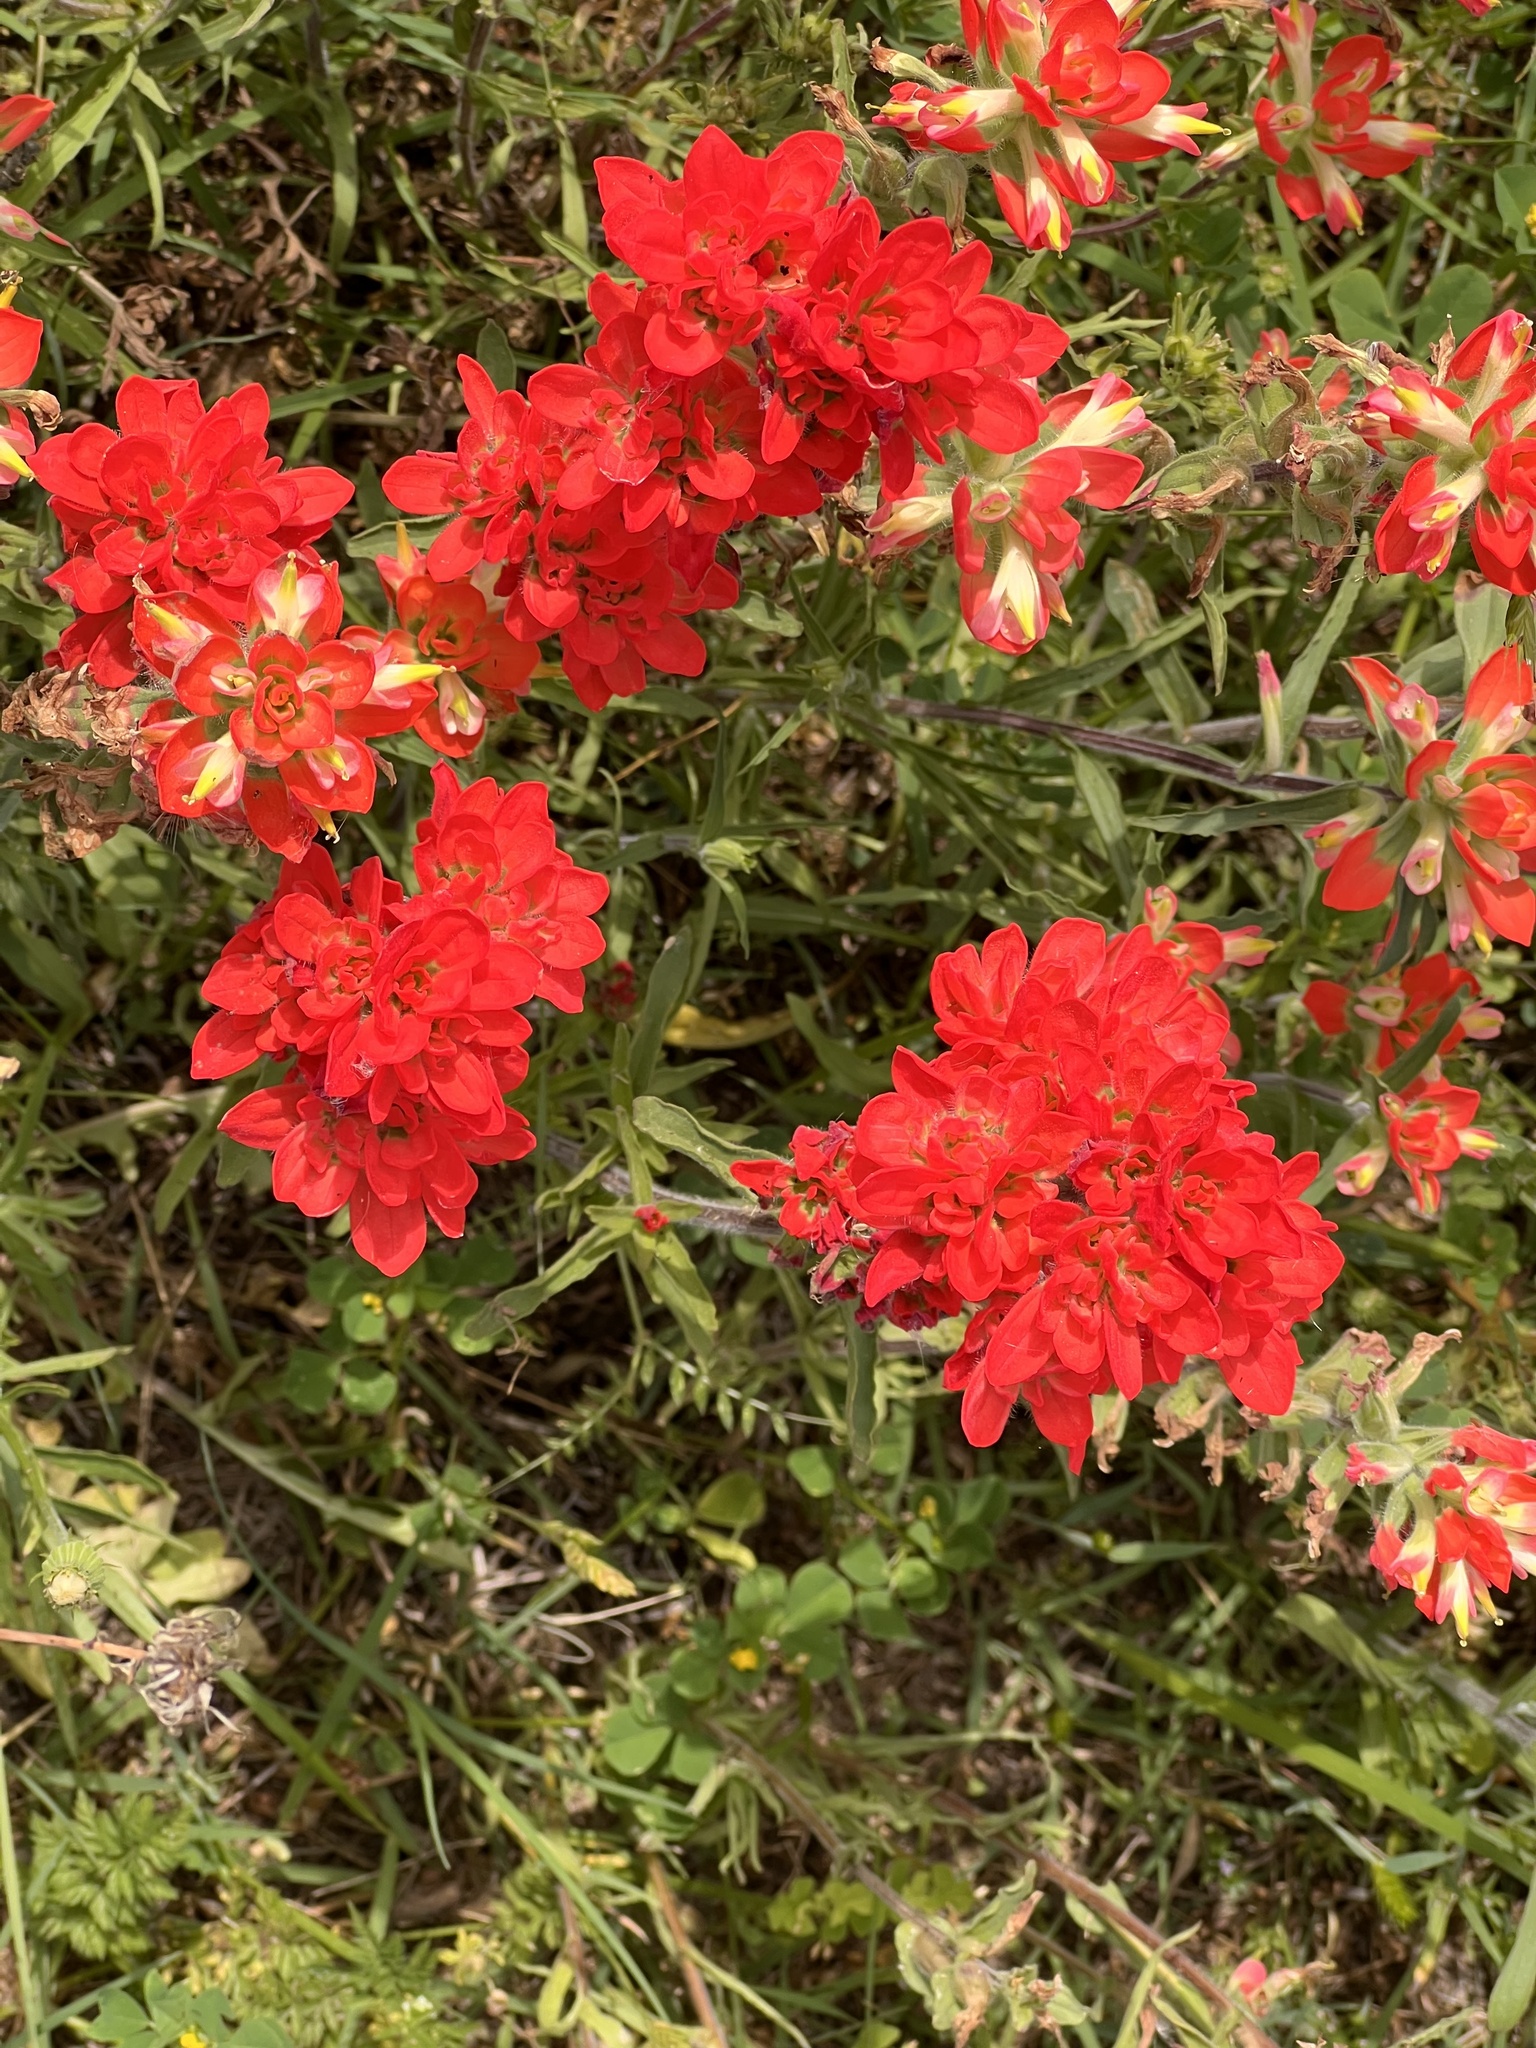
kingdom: Plantae
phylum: Tracheophyta
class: Magnoliopsida
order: Lamiales
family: Orobanchaceae
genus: Castilleja
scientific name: Castilleja indivisa
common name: Texas paintbrush
